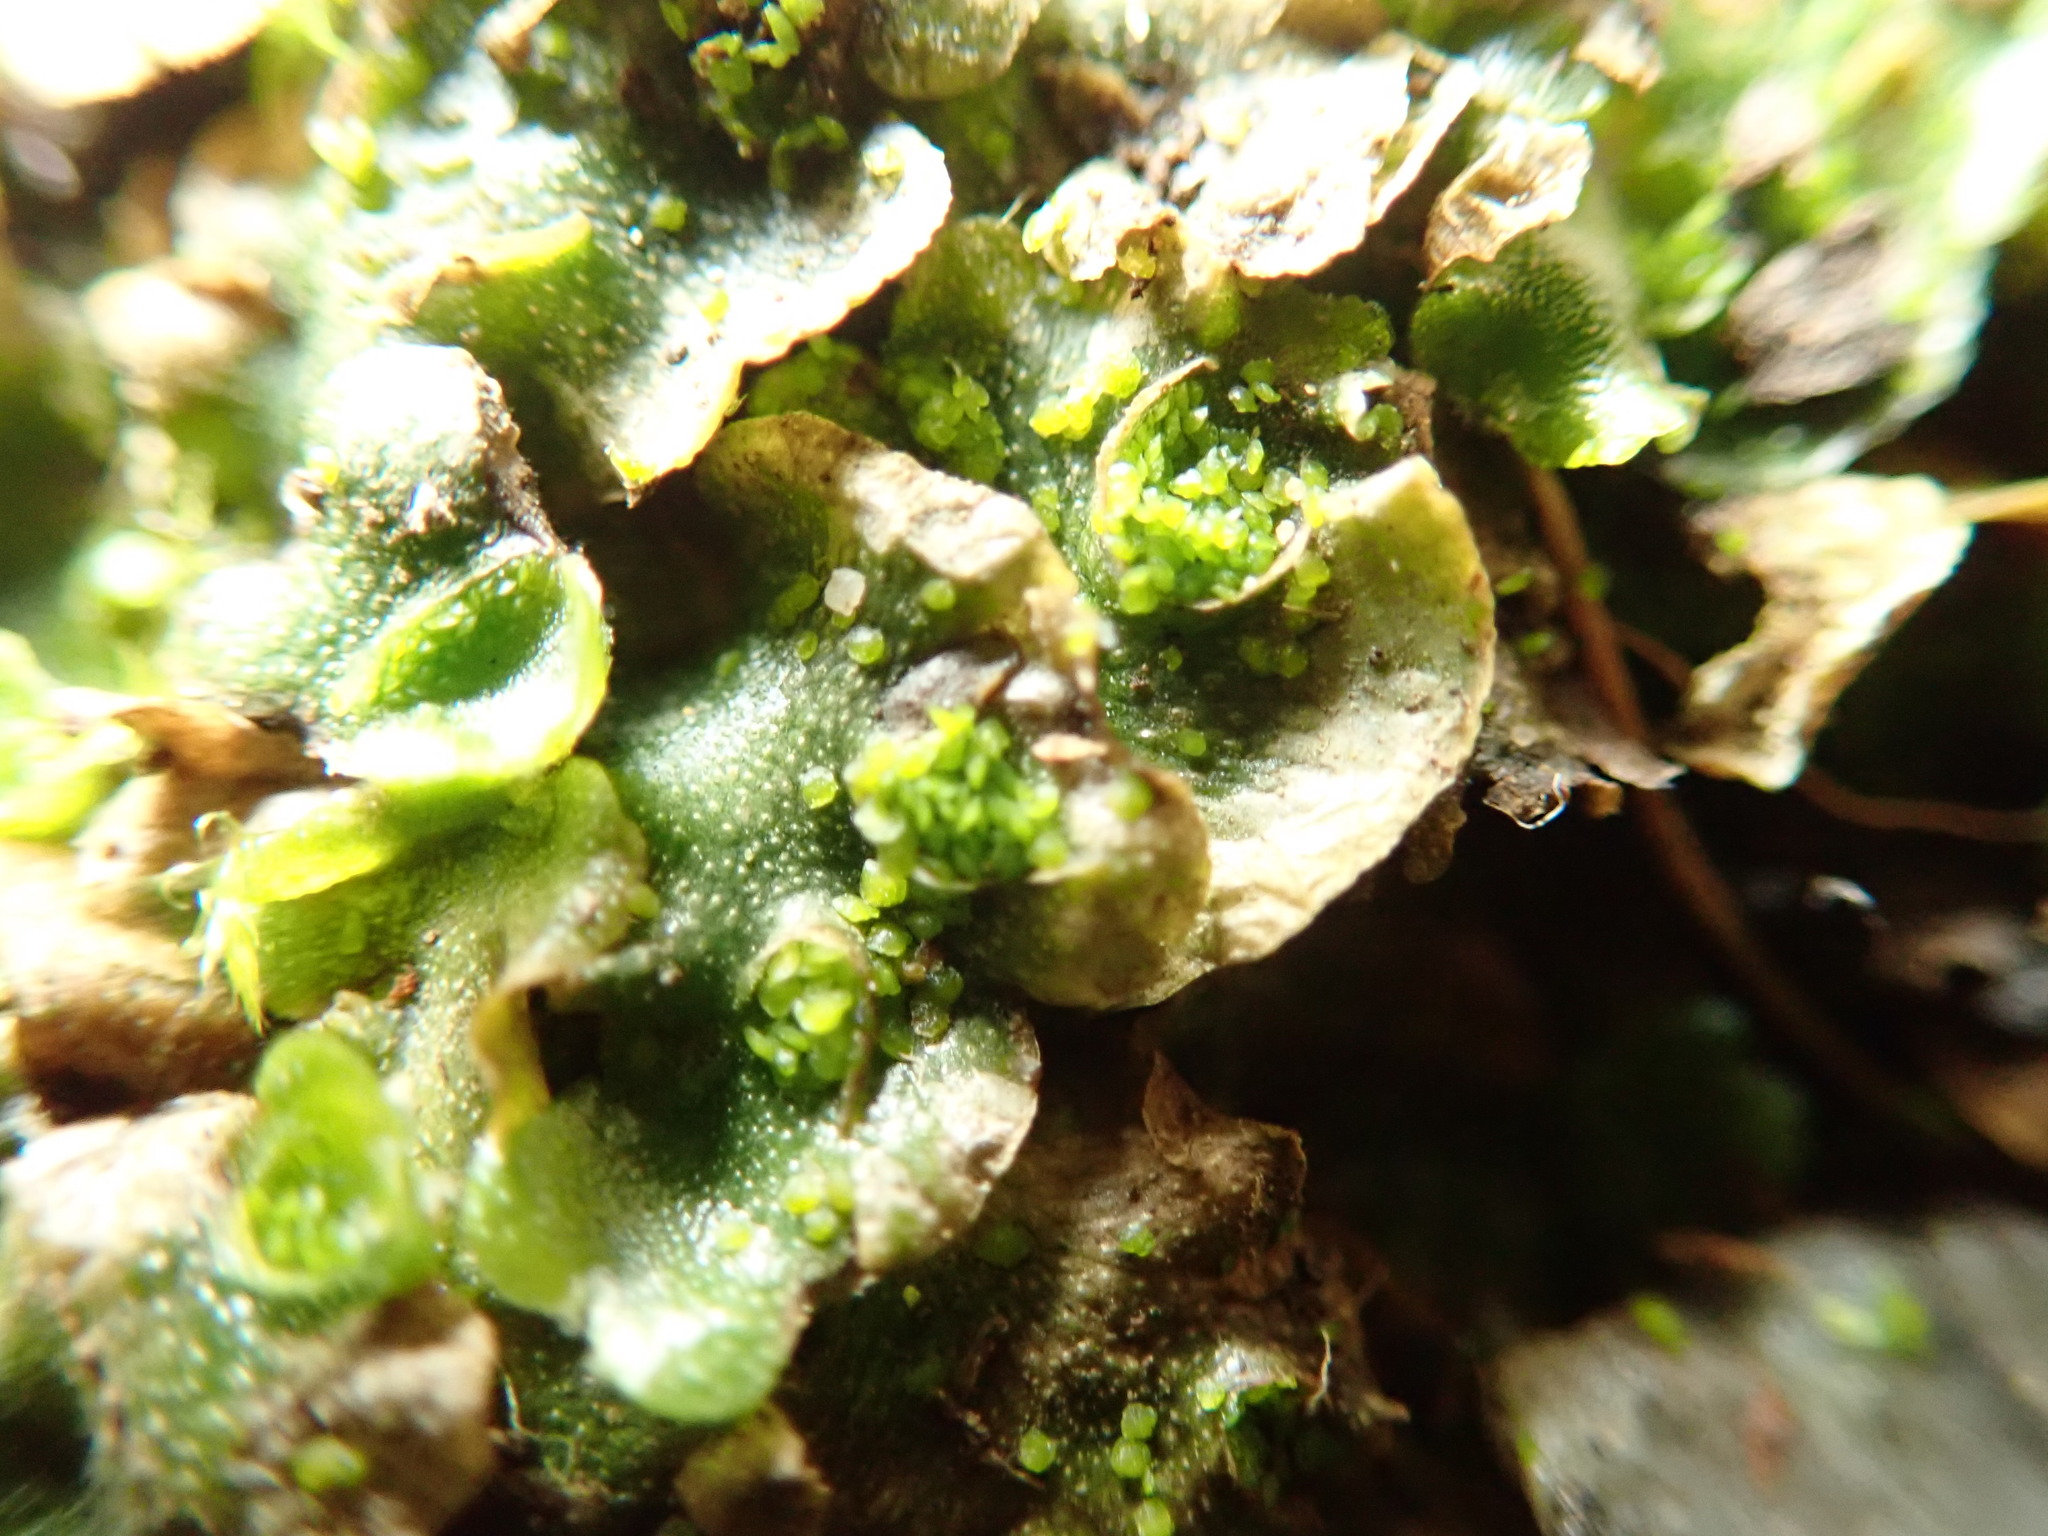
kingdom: Plantae
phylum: Marchantiophyta
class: Marchantiopsida
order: Lunulariales
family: Lunulariaceae
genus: Lunularia
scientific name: Lunularia cruciata
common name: Crescent-cup liverwort
